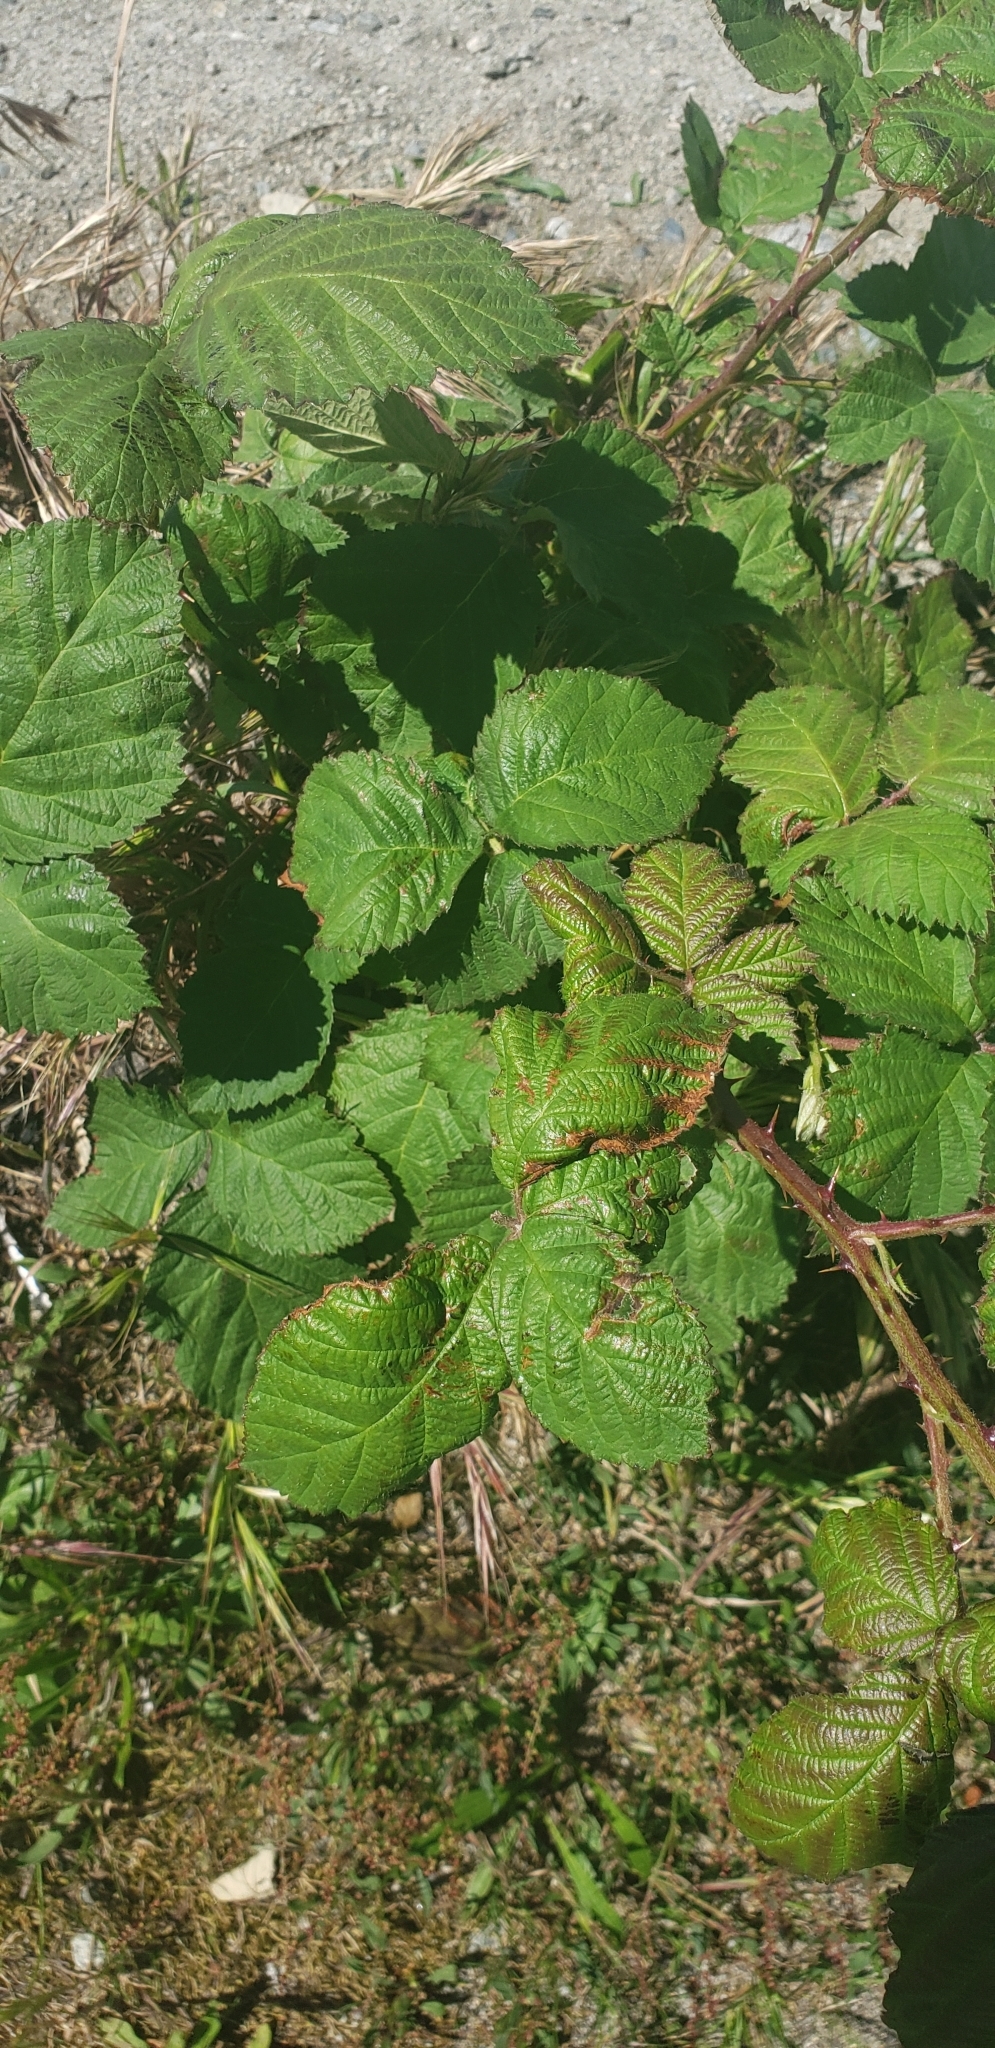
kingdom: Plantae
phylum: Tracheophyta
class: Magnoliopsida
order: Rosales
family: Rosaceae
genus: Rubus
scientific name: Rubus bifrons
